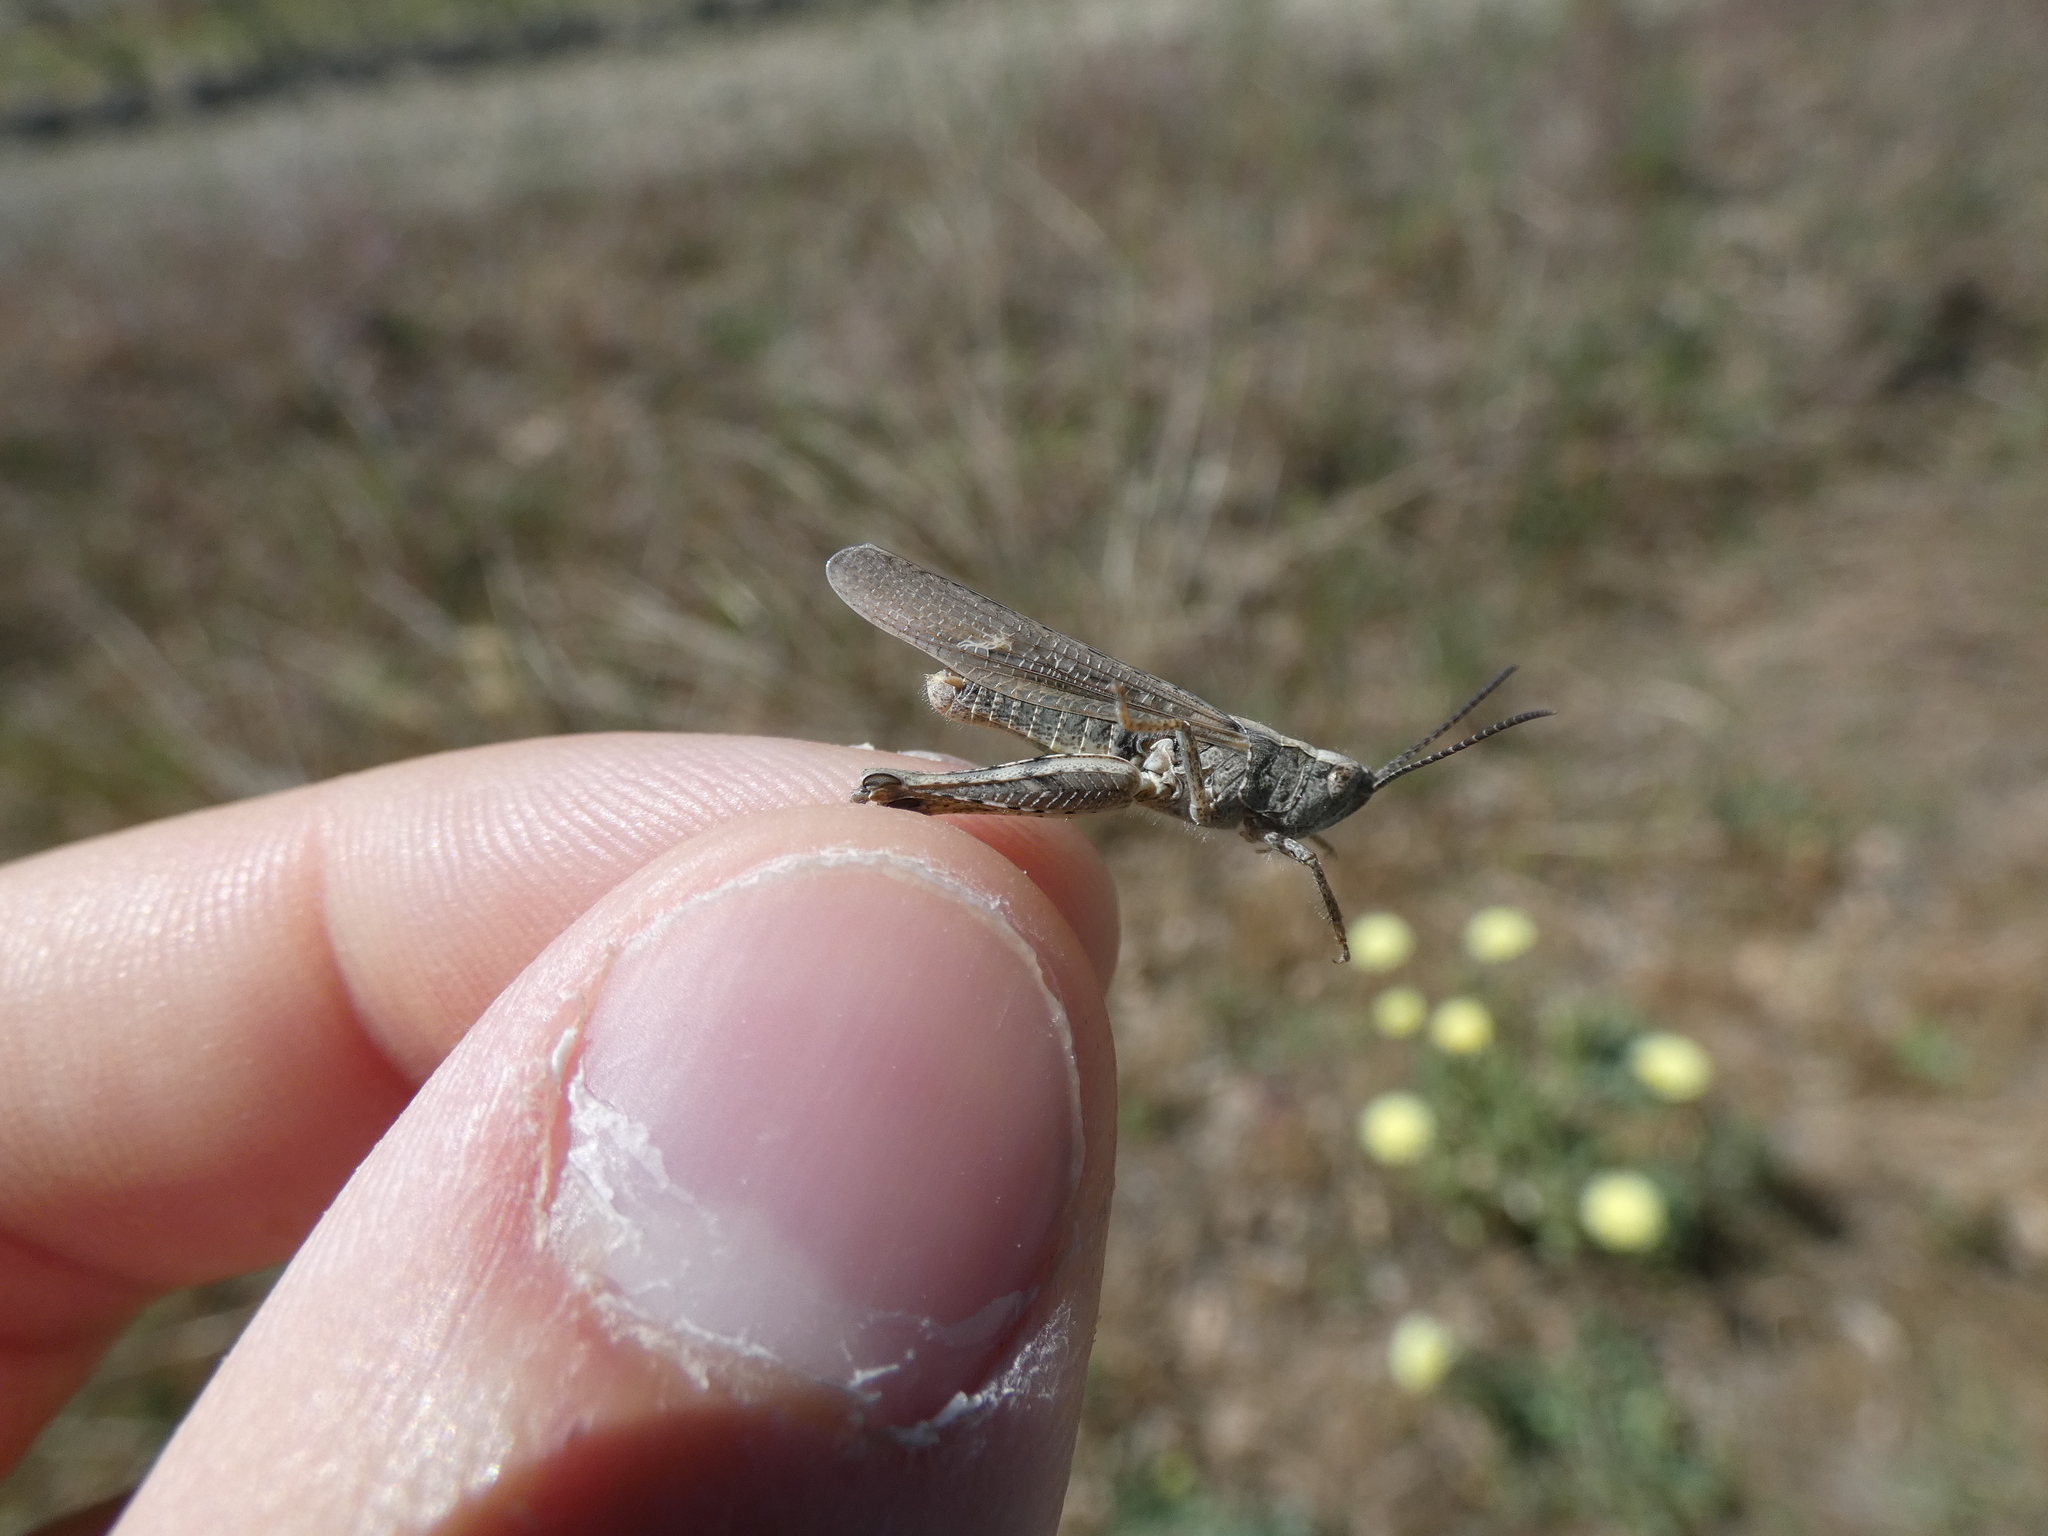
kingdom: Animalia
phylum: Arthropoda
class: Insecta
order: Orthoptera
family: Acrididae
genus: Chorthippus
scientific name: Chorthippus brunneus
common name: Field grasshopper
